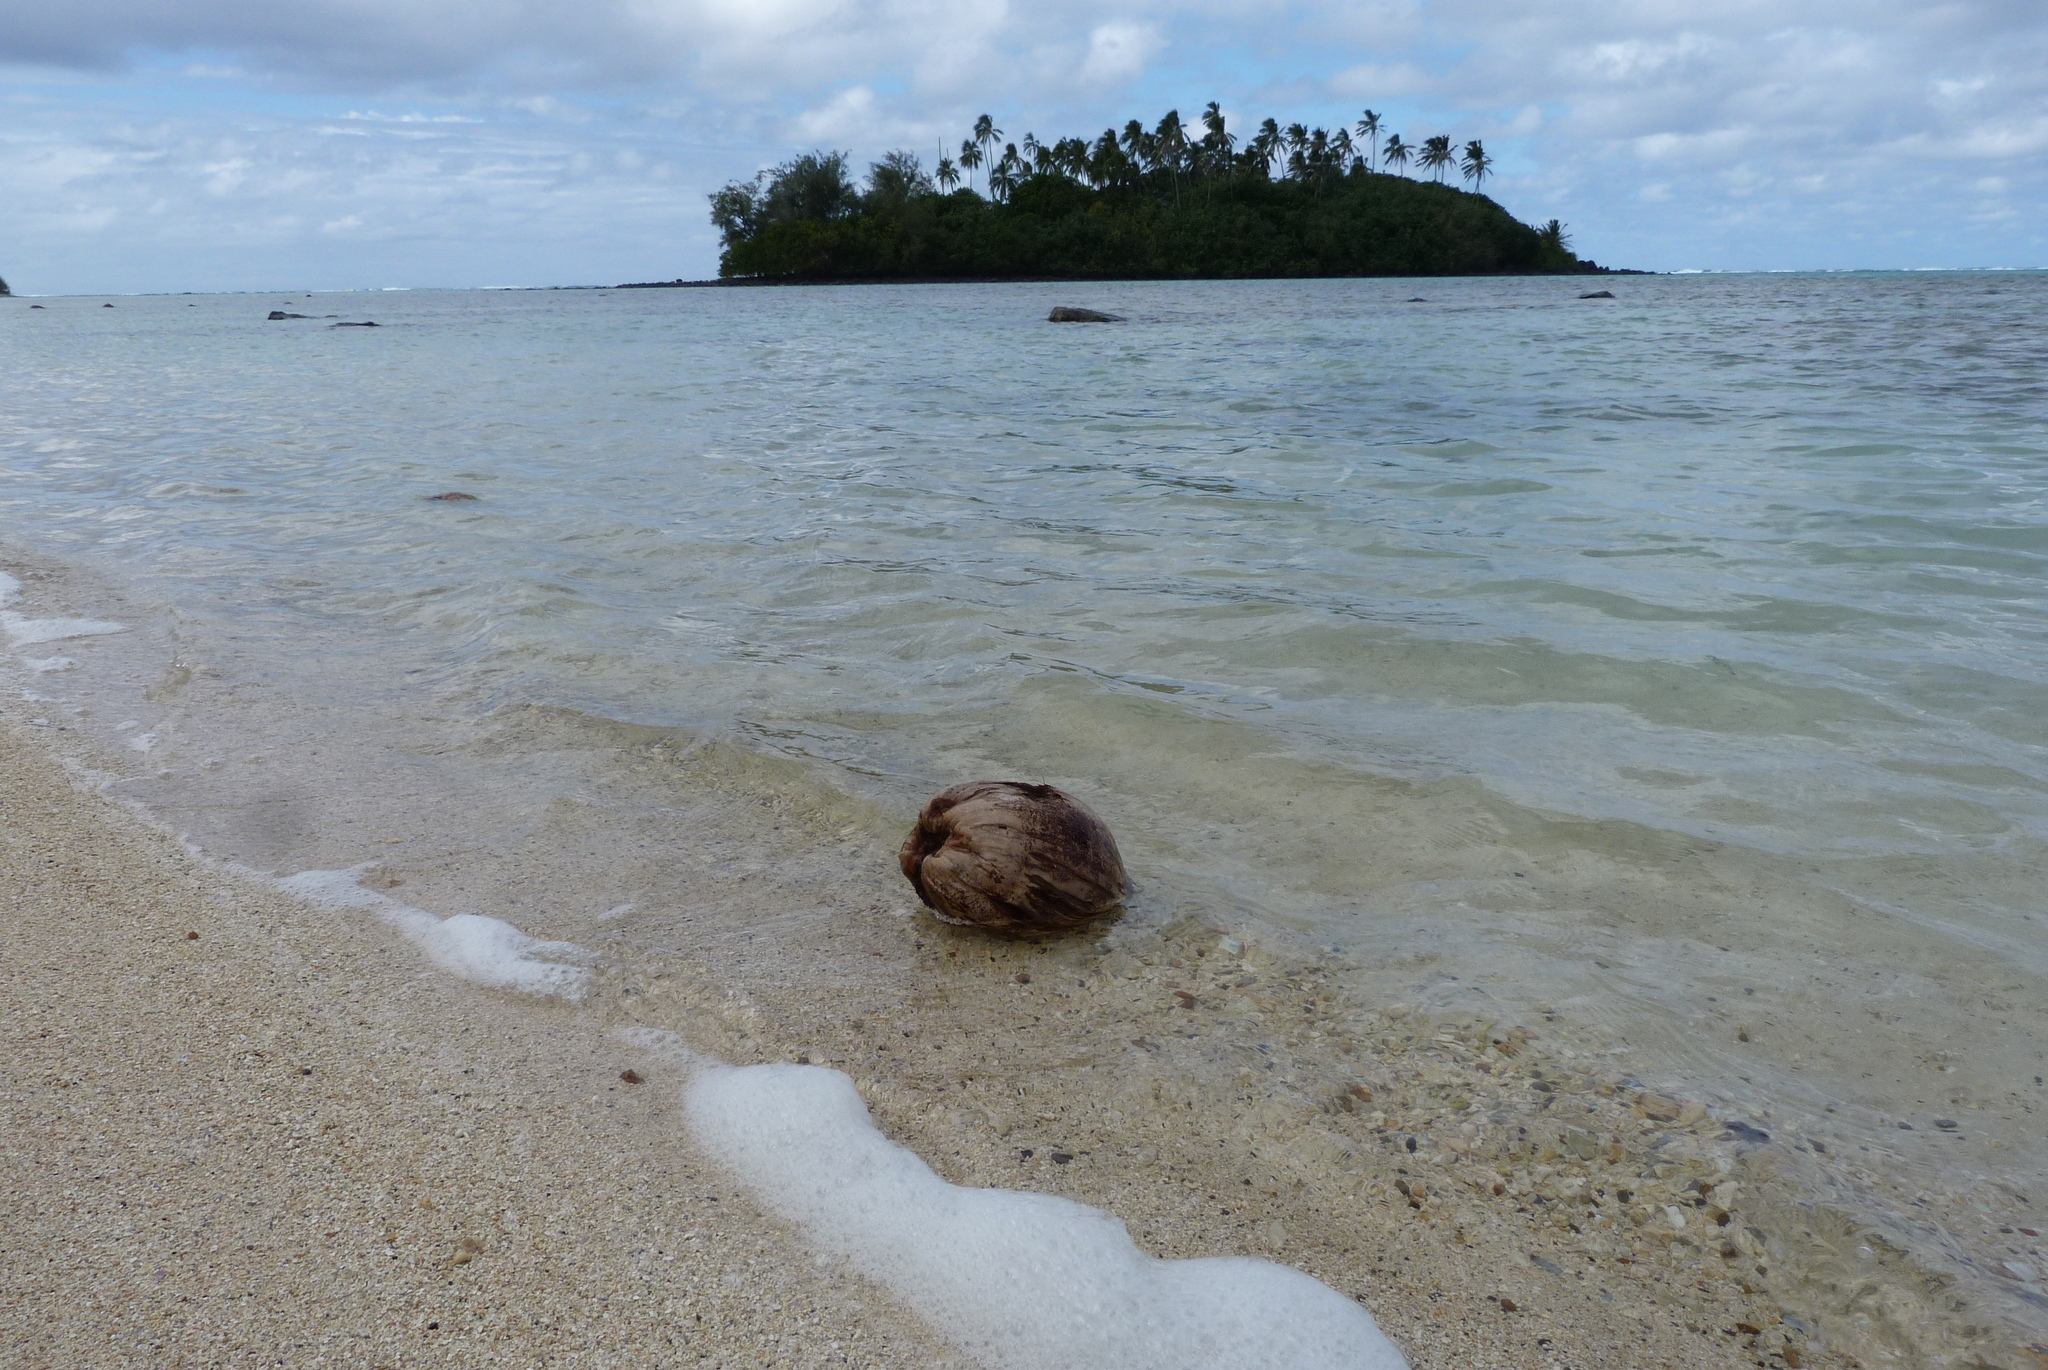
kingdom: Plantae
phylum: Tracheophyta
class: Liliopsida
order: Arecales
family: Arecaceae
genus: Cocos
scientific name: Cocos nucifera
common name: Coconut palm
